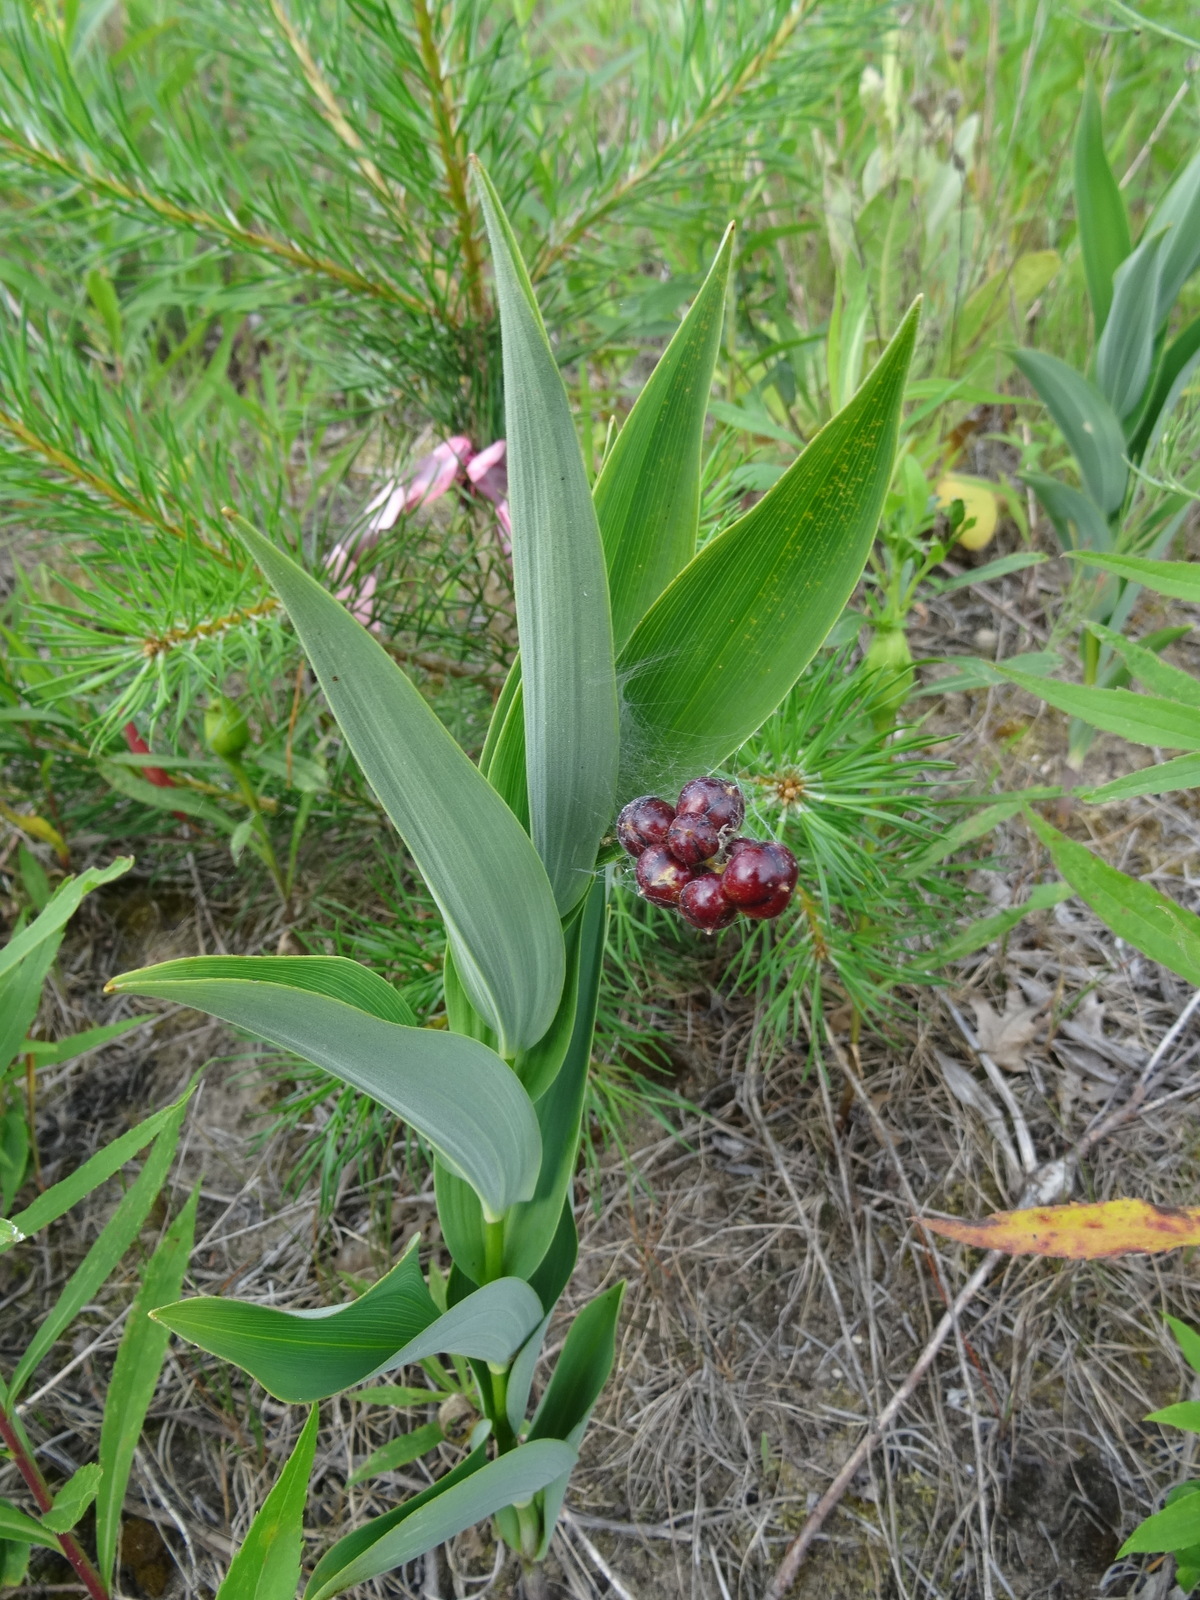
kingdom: Plantae
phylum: Tracheophyta
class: Liliopsida
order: Asparagales
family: Asparagaceae
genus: Maianthemum
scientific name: Maianthemum stellatum
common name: Little false solomon's seal
